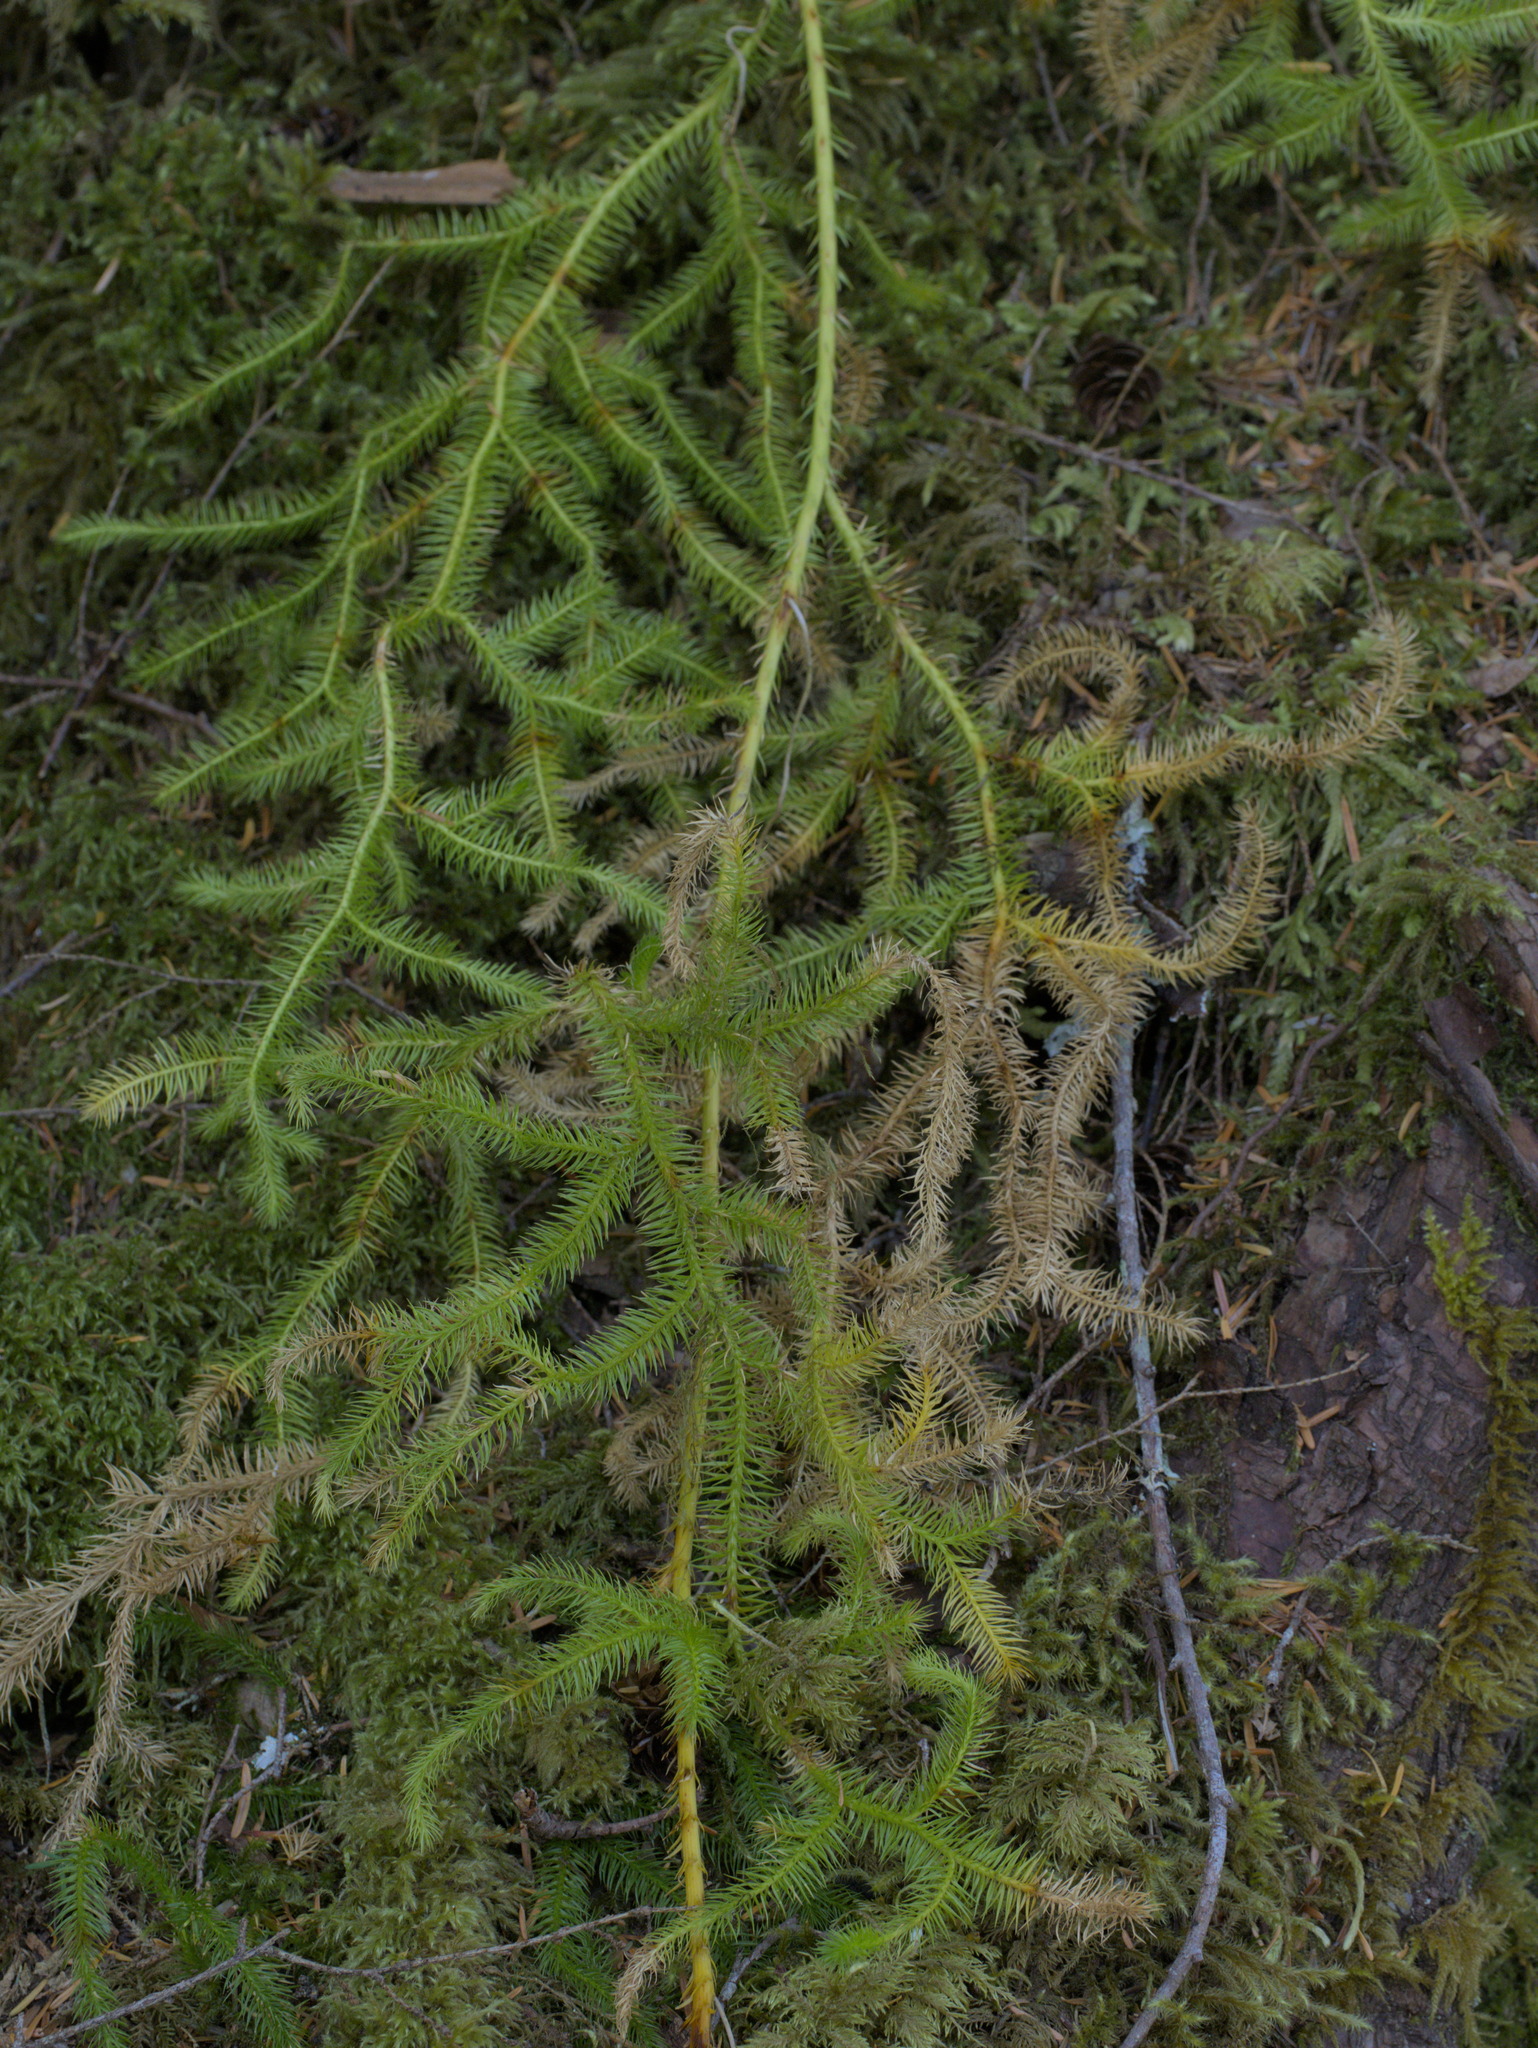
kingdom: Plantae
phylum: Tracheophyta
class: Lycopodiopsida
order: Lycopodiales
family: Lycopodiaceae
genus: Lycopodium
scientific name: Lycopodium clavatum
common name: Stag's-horn clubmoss
